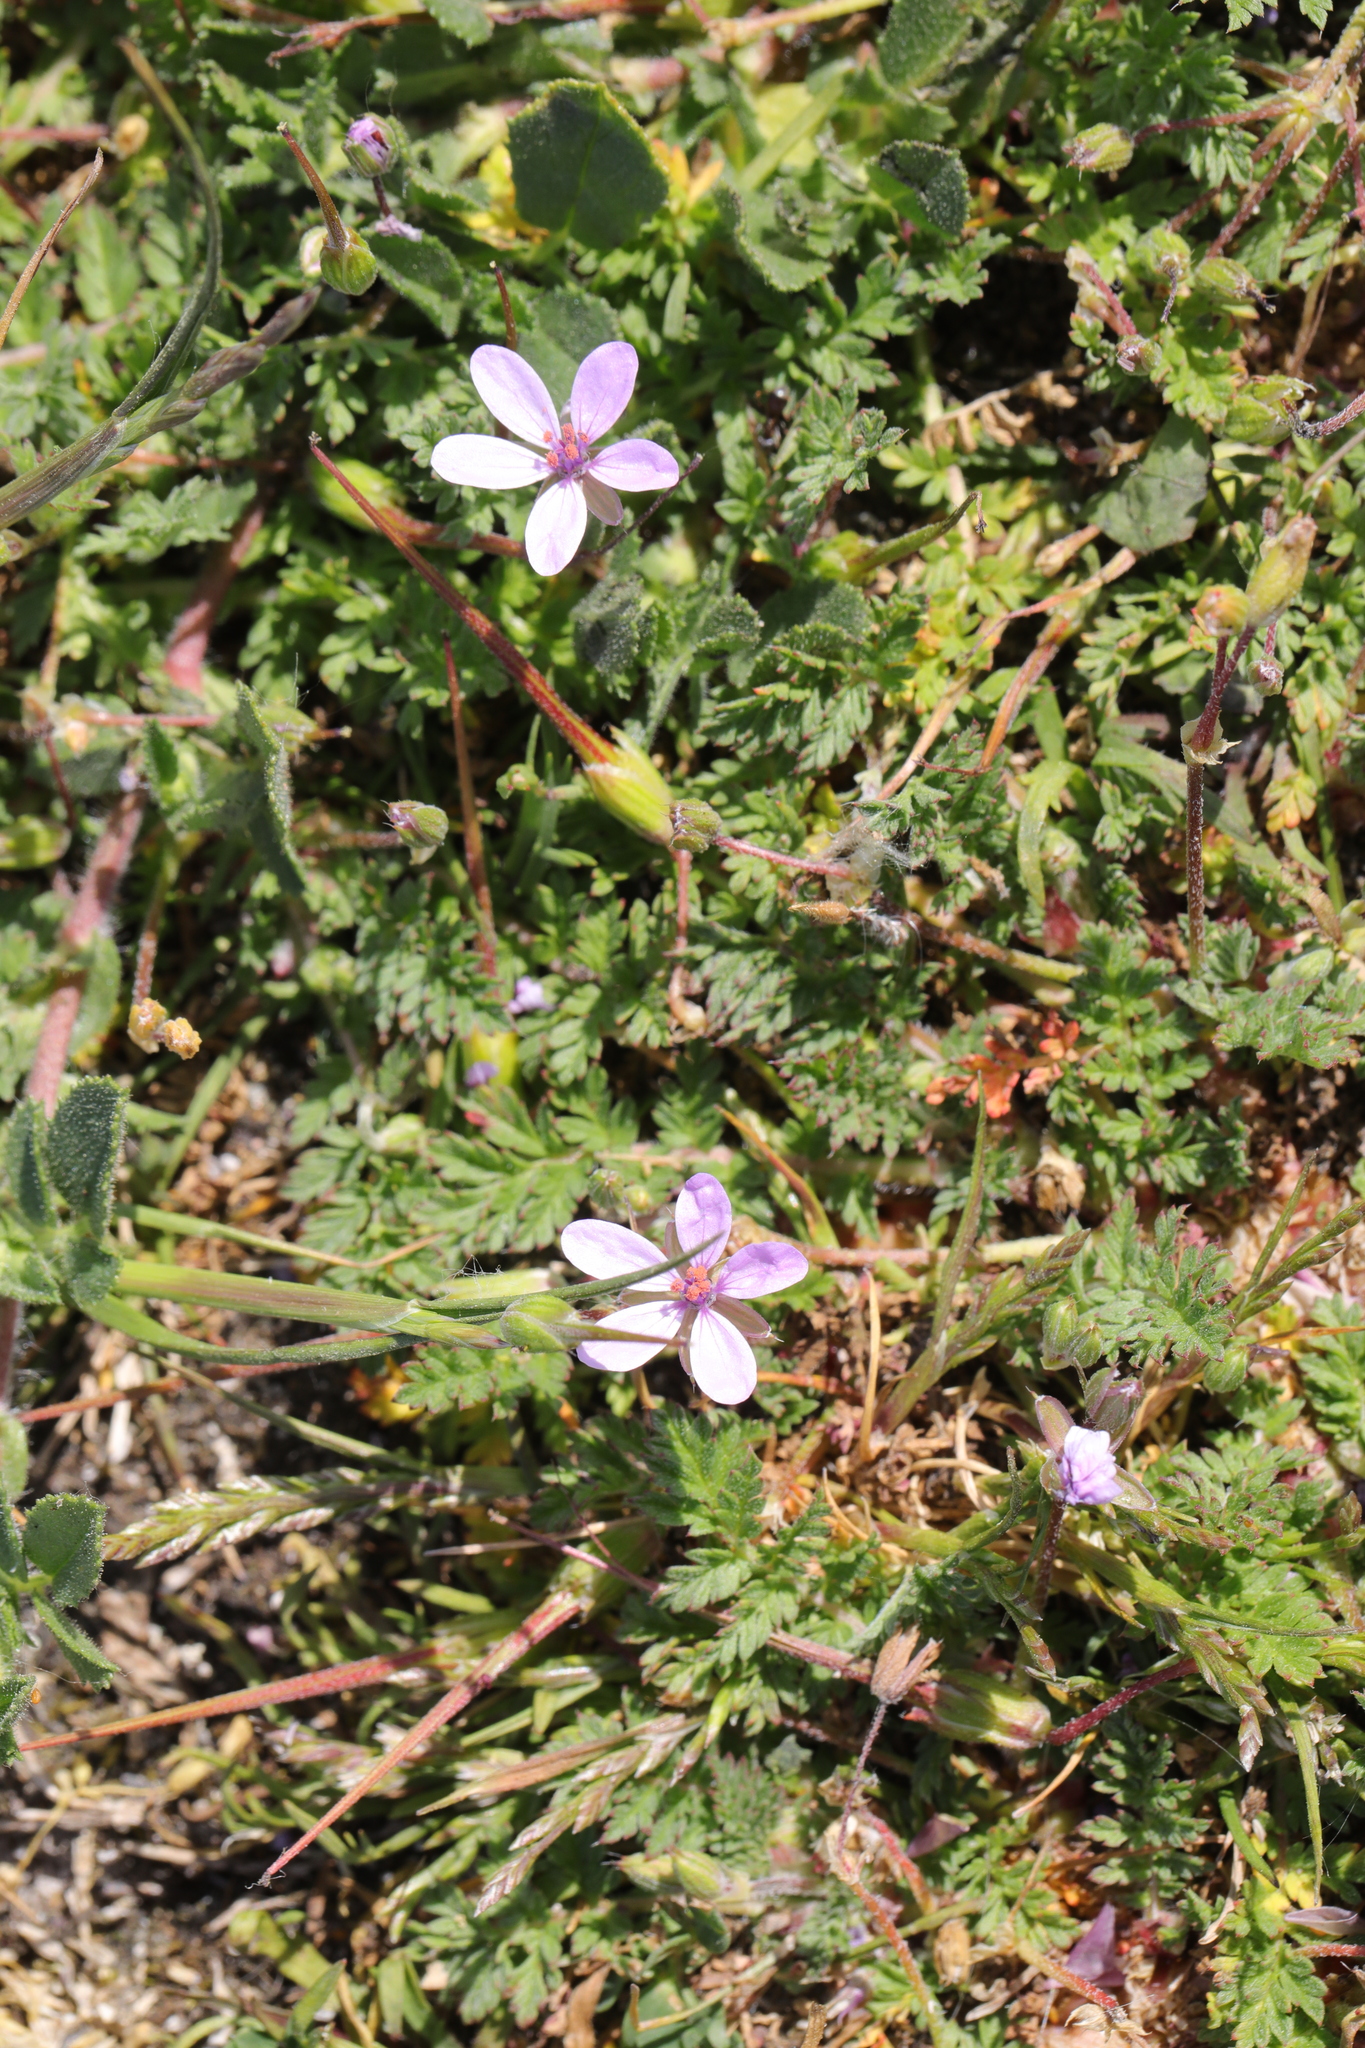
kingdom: Plantae
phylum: Tracheophyta
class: Magnoliopsida
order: Geraniales
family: Geraniaceae
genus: Erodium
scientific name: Erodium cicutarium
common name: Common stork's-bill
